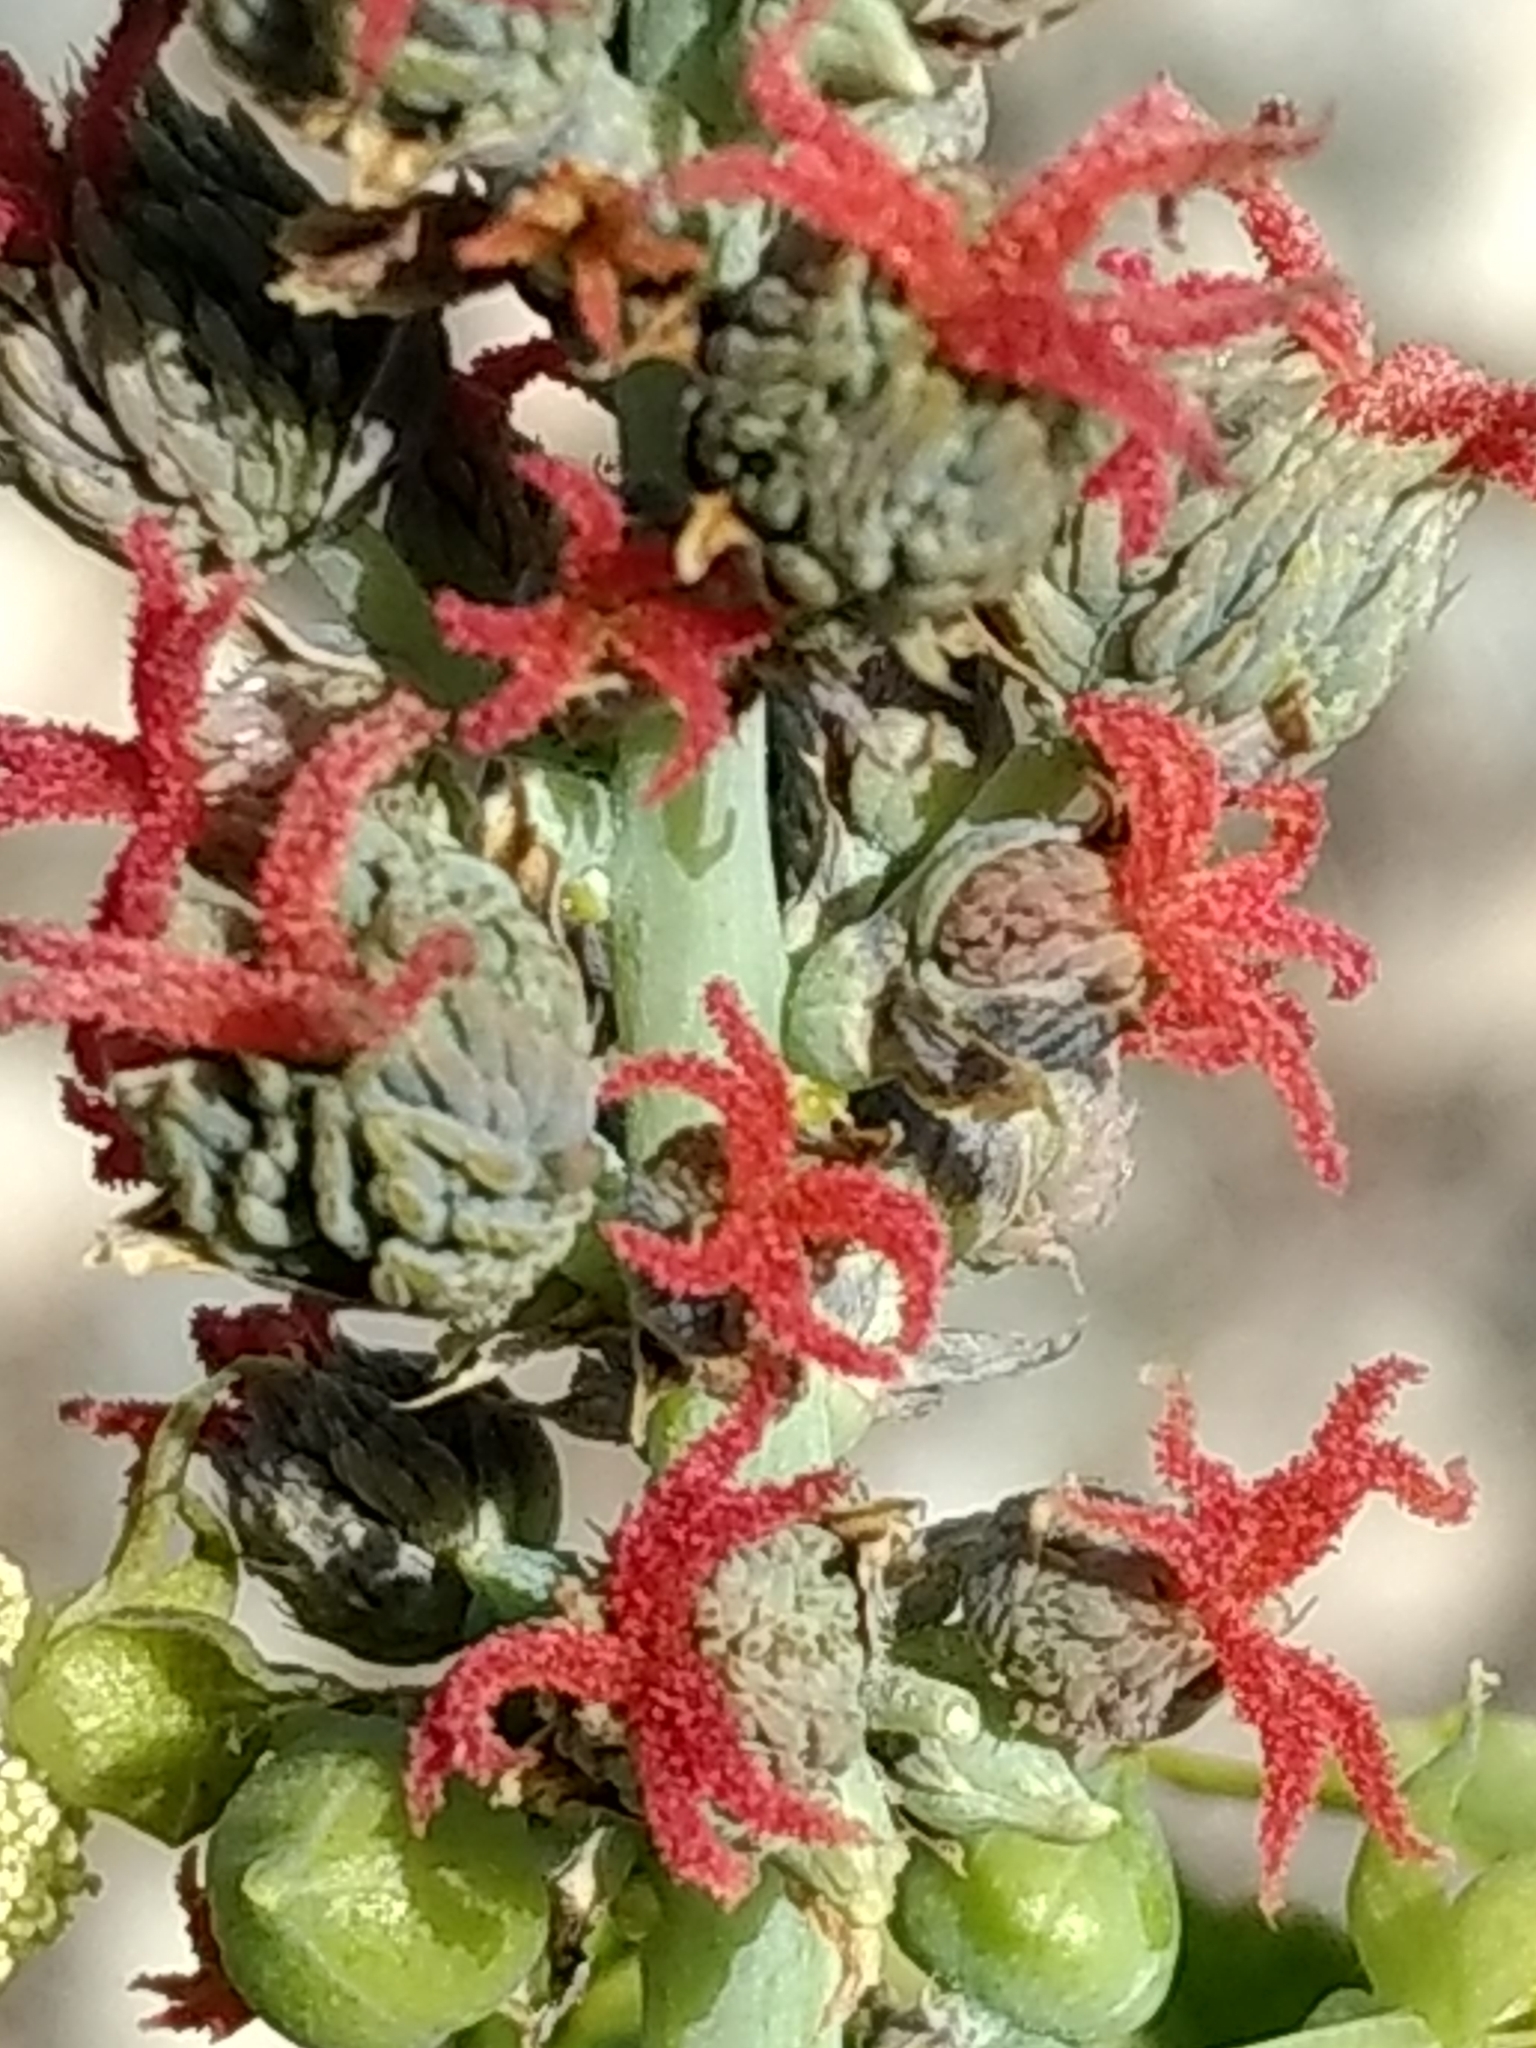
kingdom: Plantae
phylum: Tracheophyta
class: Magnoliopsida
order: Malpighiales
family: Euphorbiaceae
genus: Ricinus
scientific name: Ricinus communis
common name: Castor-oil-plant
